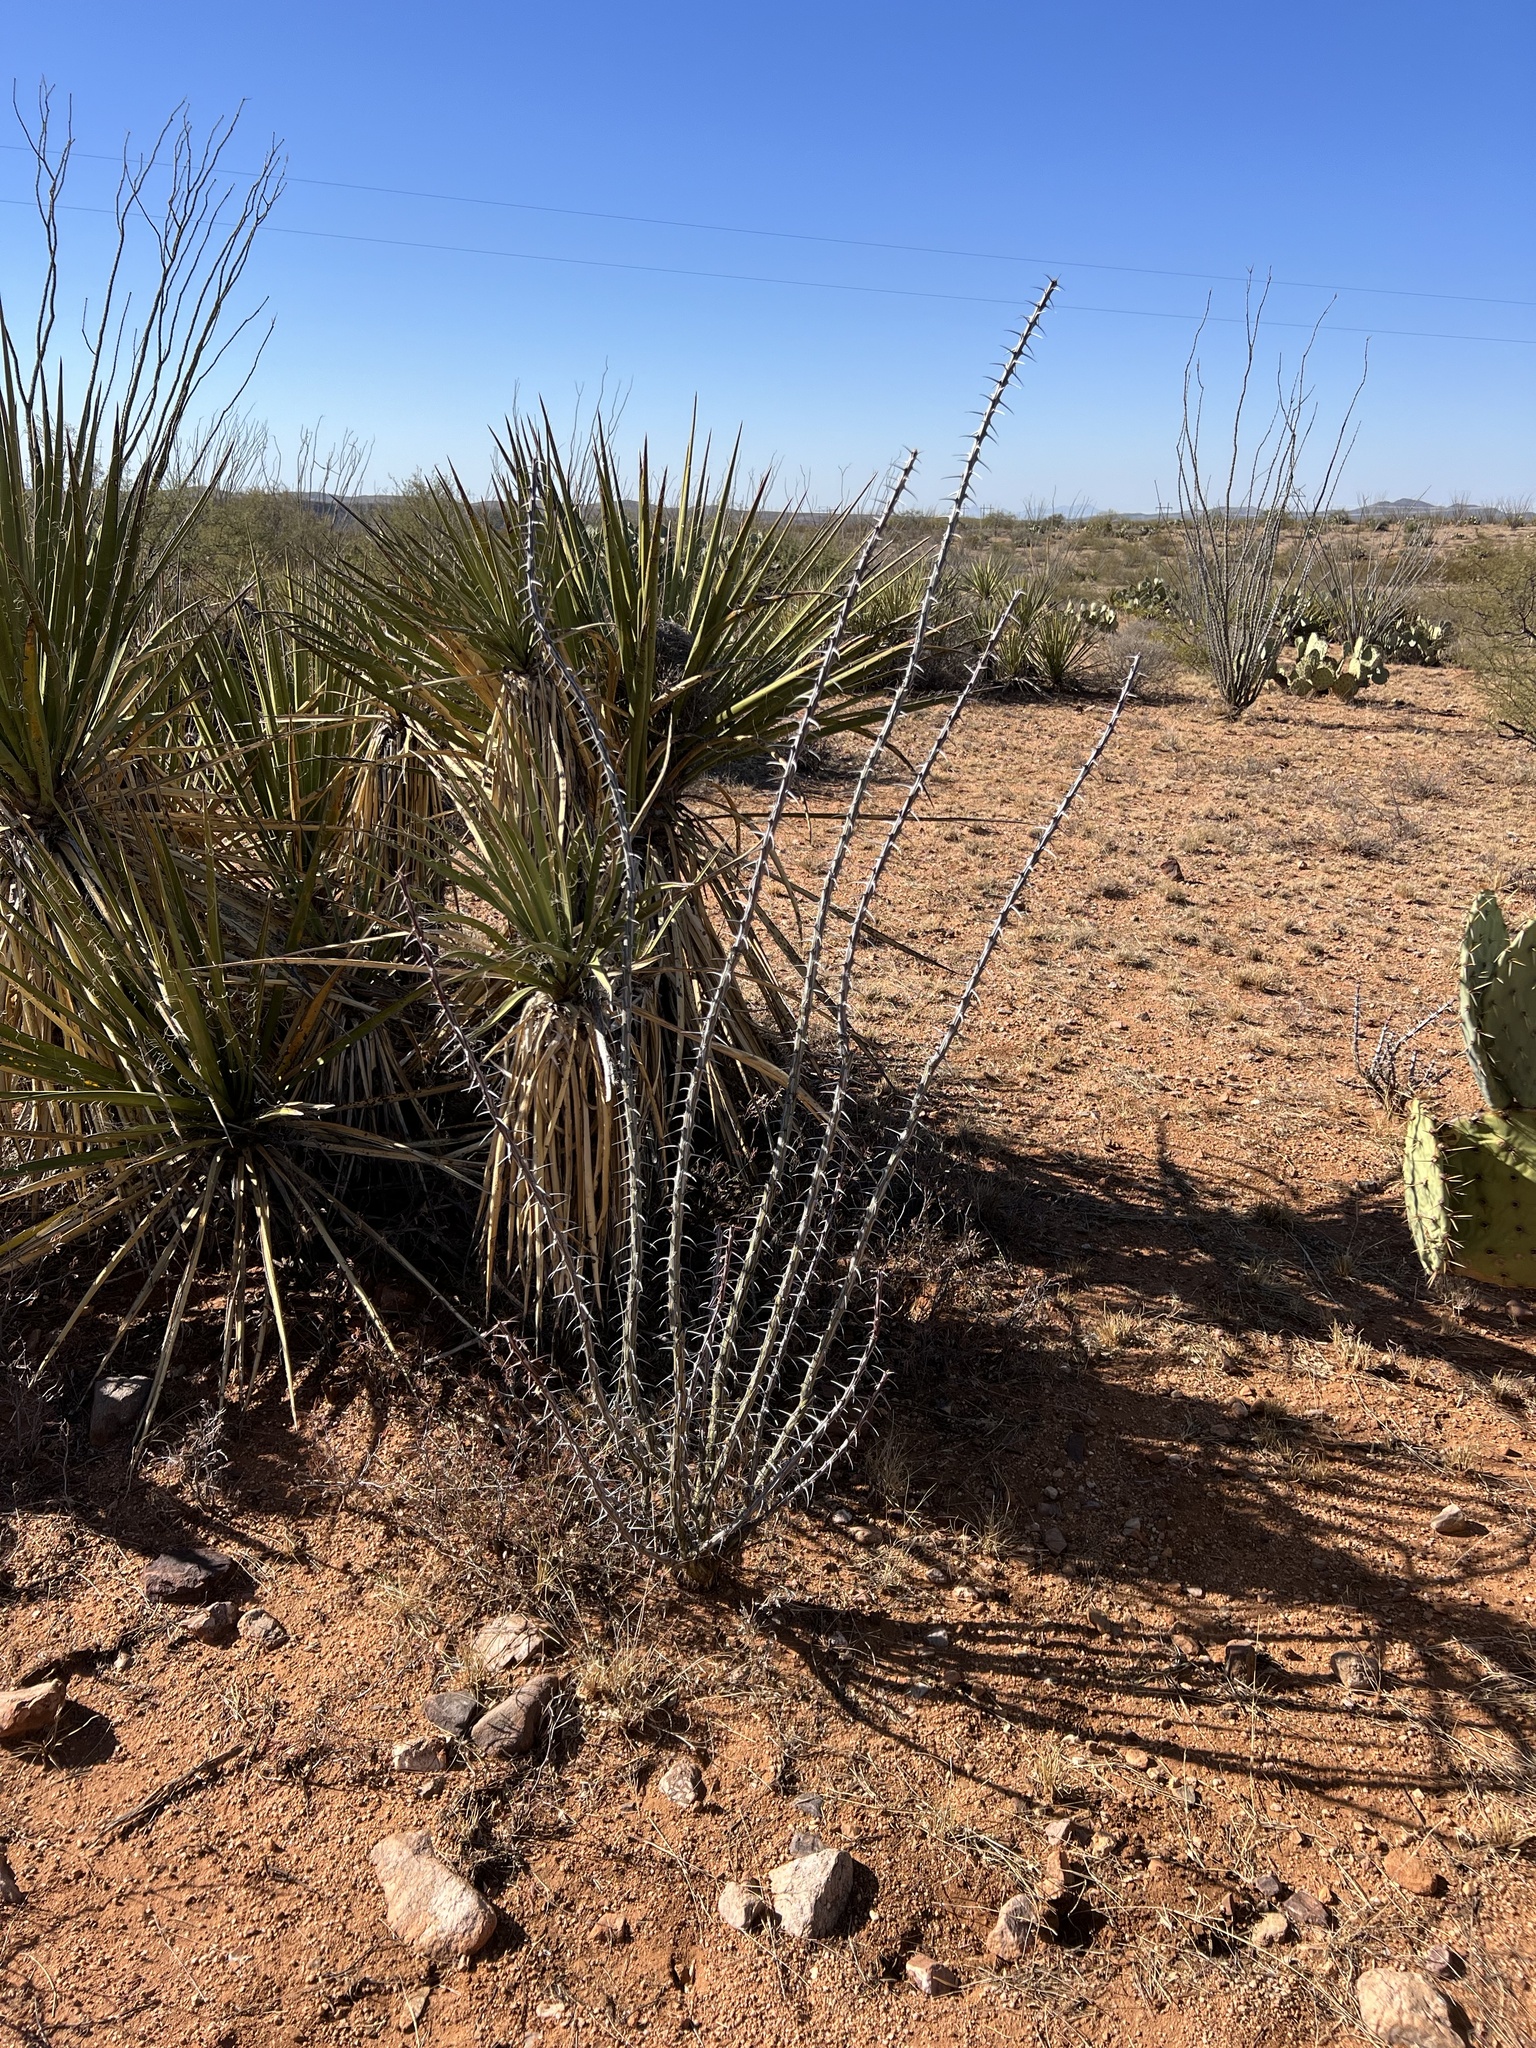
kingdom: Plantae
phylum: Tracheophyta
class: Magnoliopsida
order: Ericales
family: Fouquieriaceae
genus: Fouquieria
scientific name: Fouquieria splendens
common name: Vine-cactus
